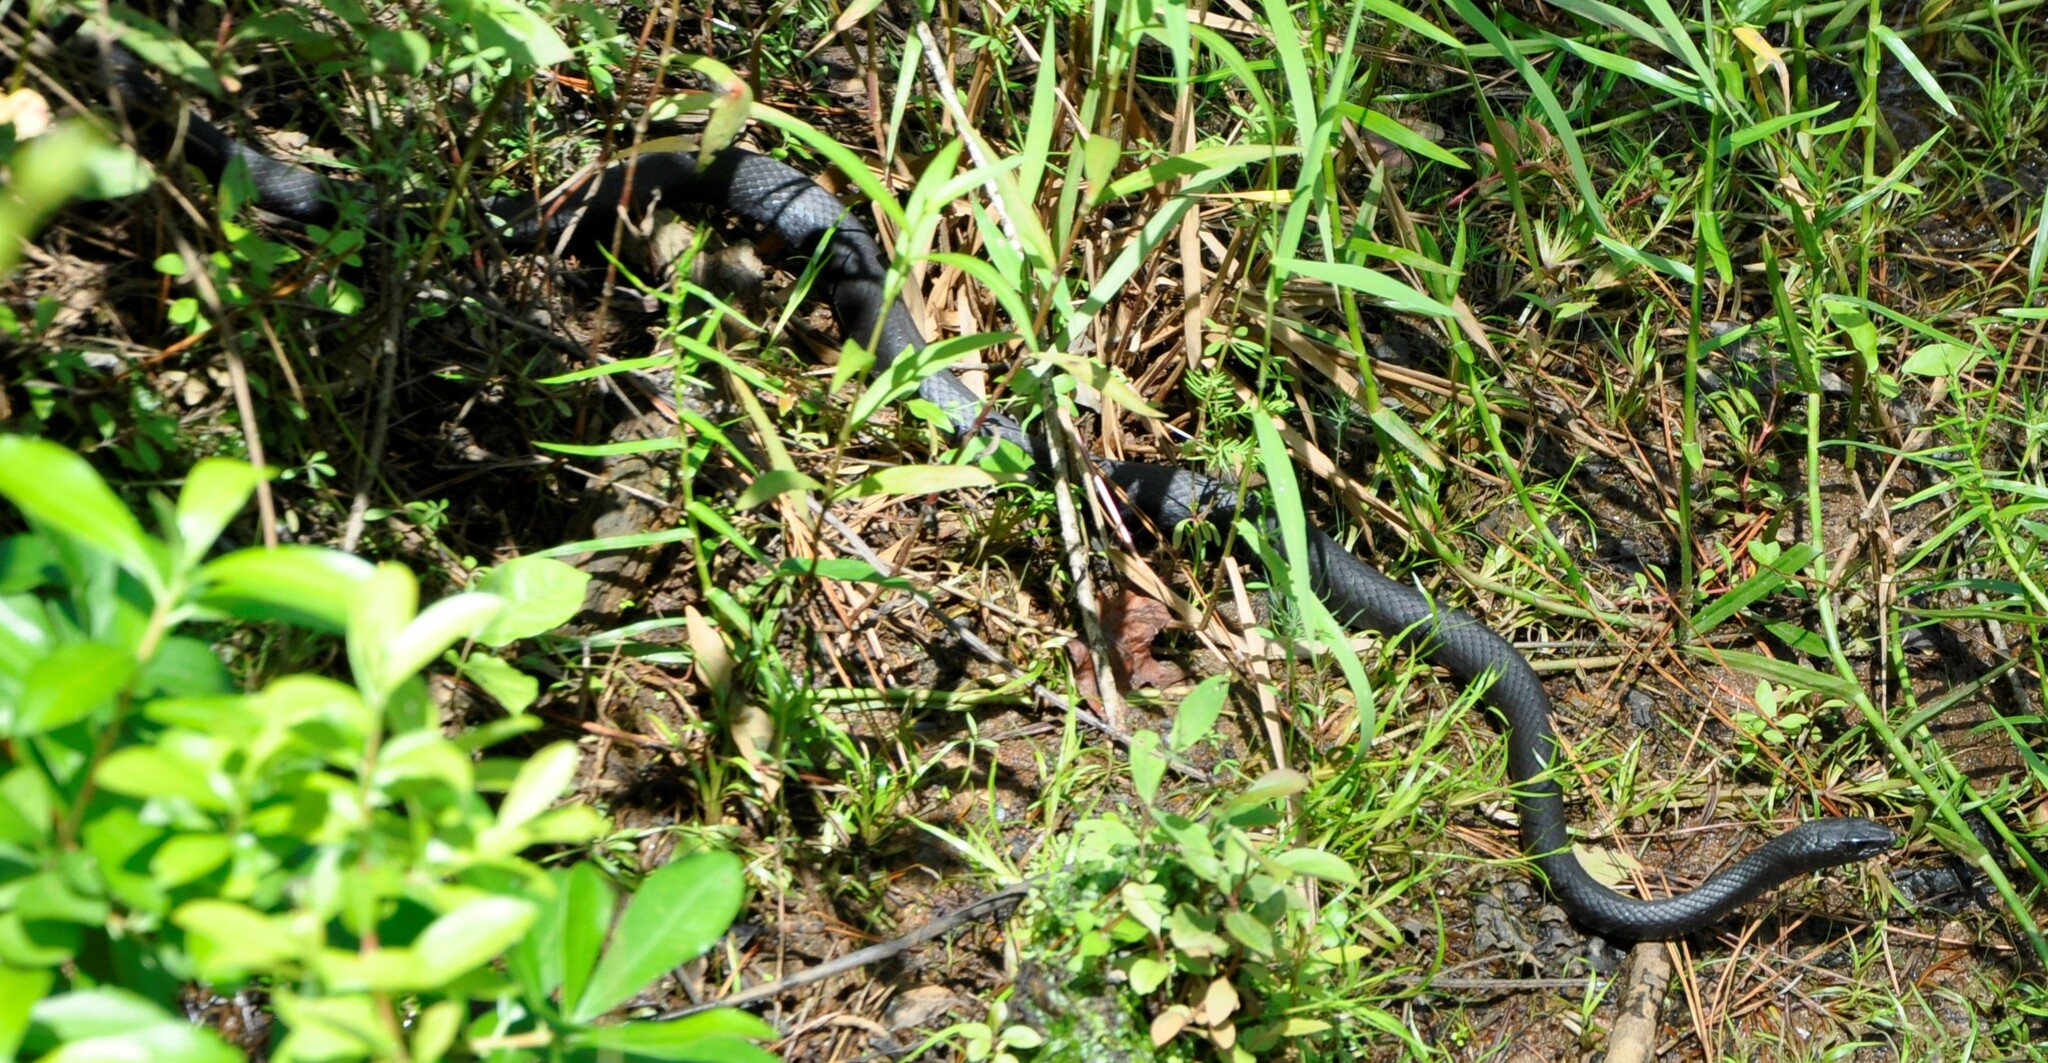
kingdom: Animalia
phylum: Chordata
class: Squamata
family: Colubridae
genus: Coluber
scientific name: Coluber constrictor
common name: Eastern racer
